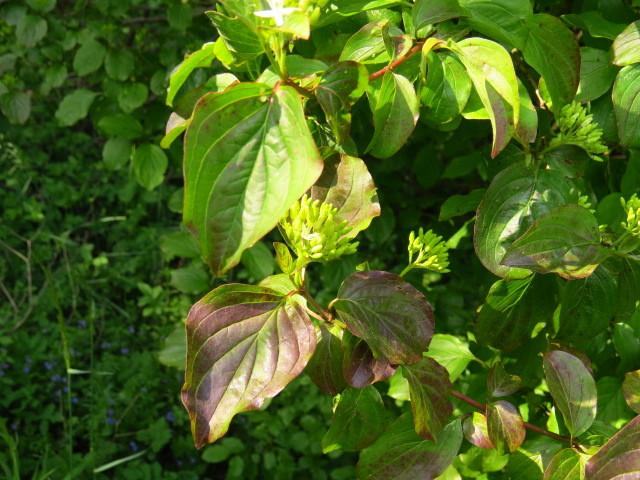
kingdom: Plantae
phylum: Tracheophyta
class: Magnoliopsida
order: Cornales
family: Cornaceae
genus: Cornus
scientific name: Cornus sanguinea
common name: Dogwood
